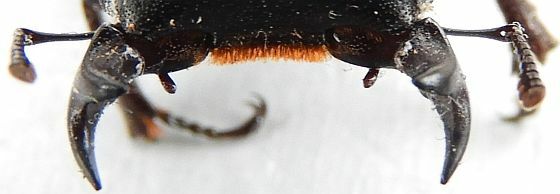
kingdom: Animalia
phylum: Arthropoda
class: Insecta
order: Coleoptera
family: Lucanidae
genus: Dorcus
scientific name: Dorcus parallelus
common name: Antelope beetle
